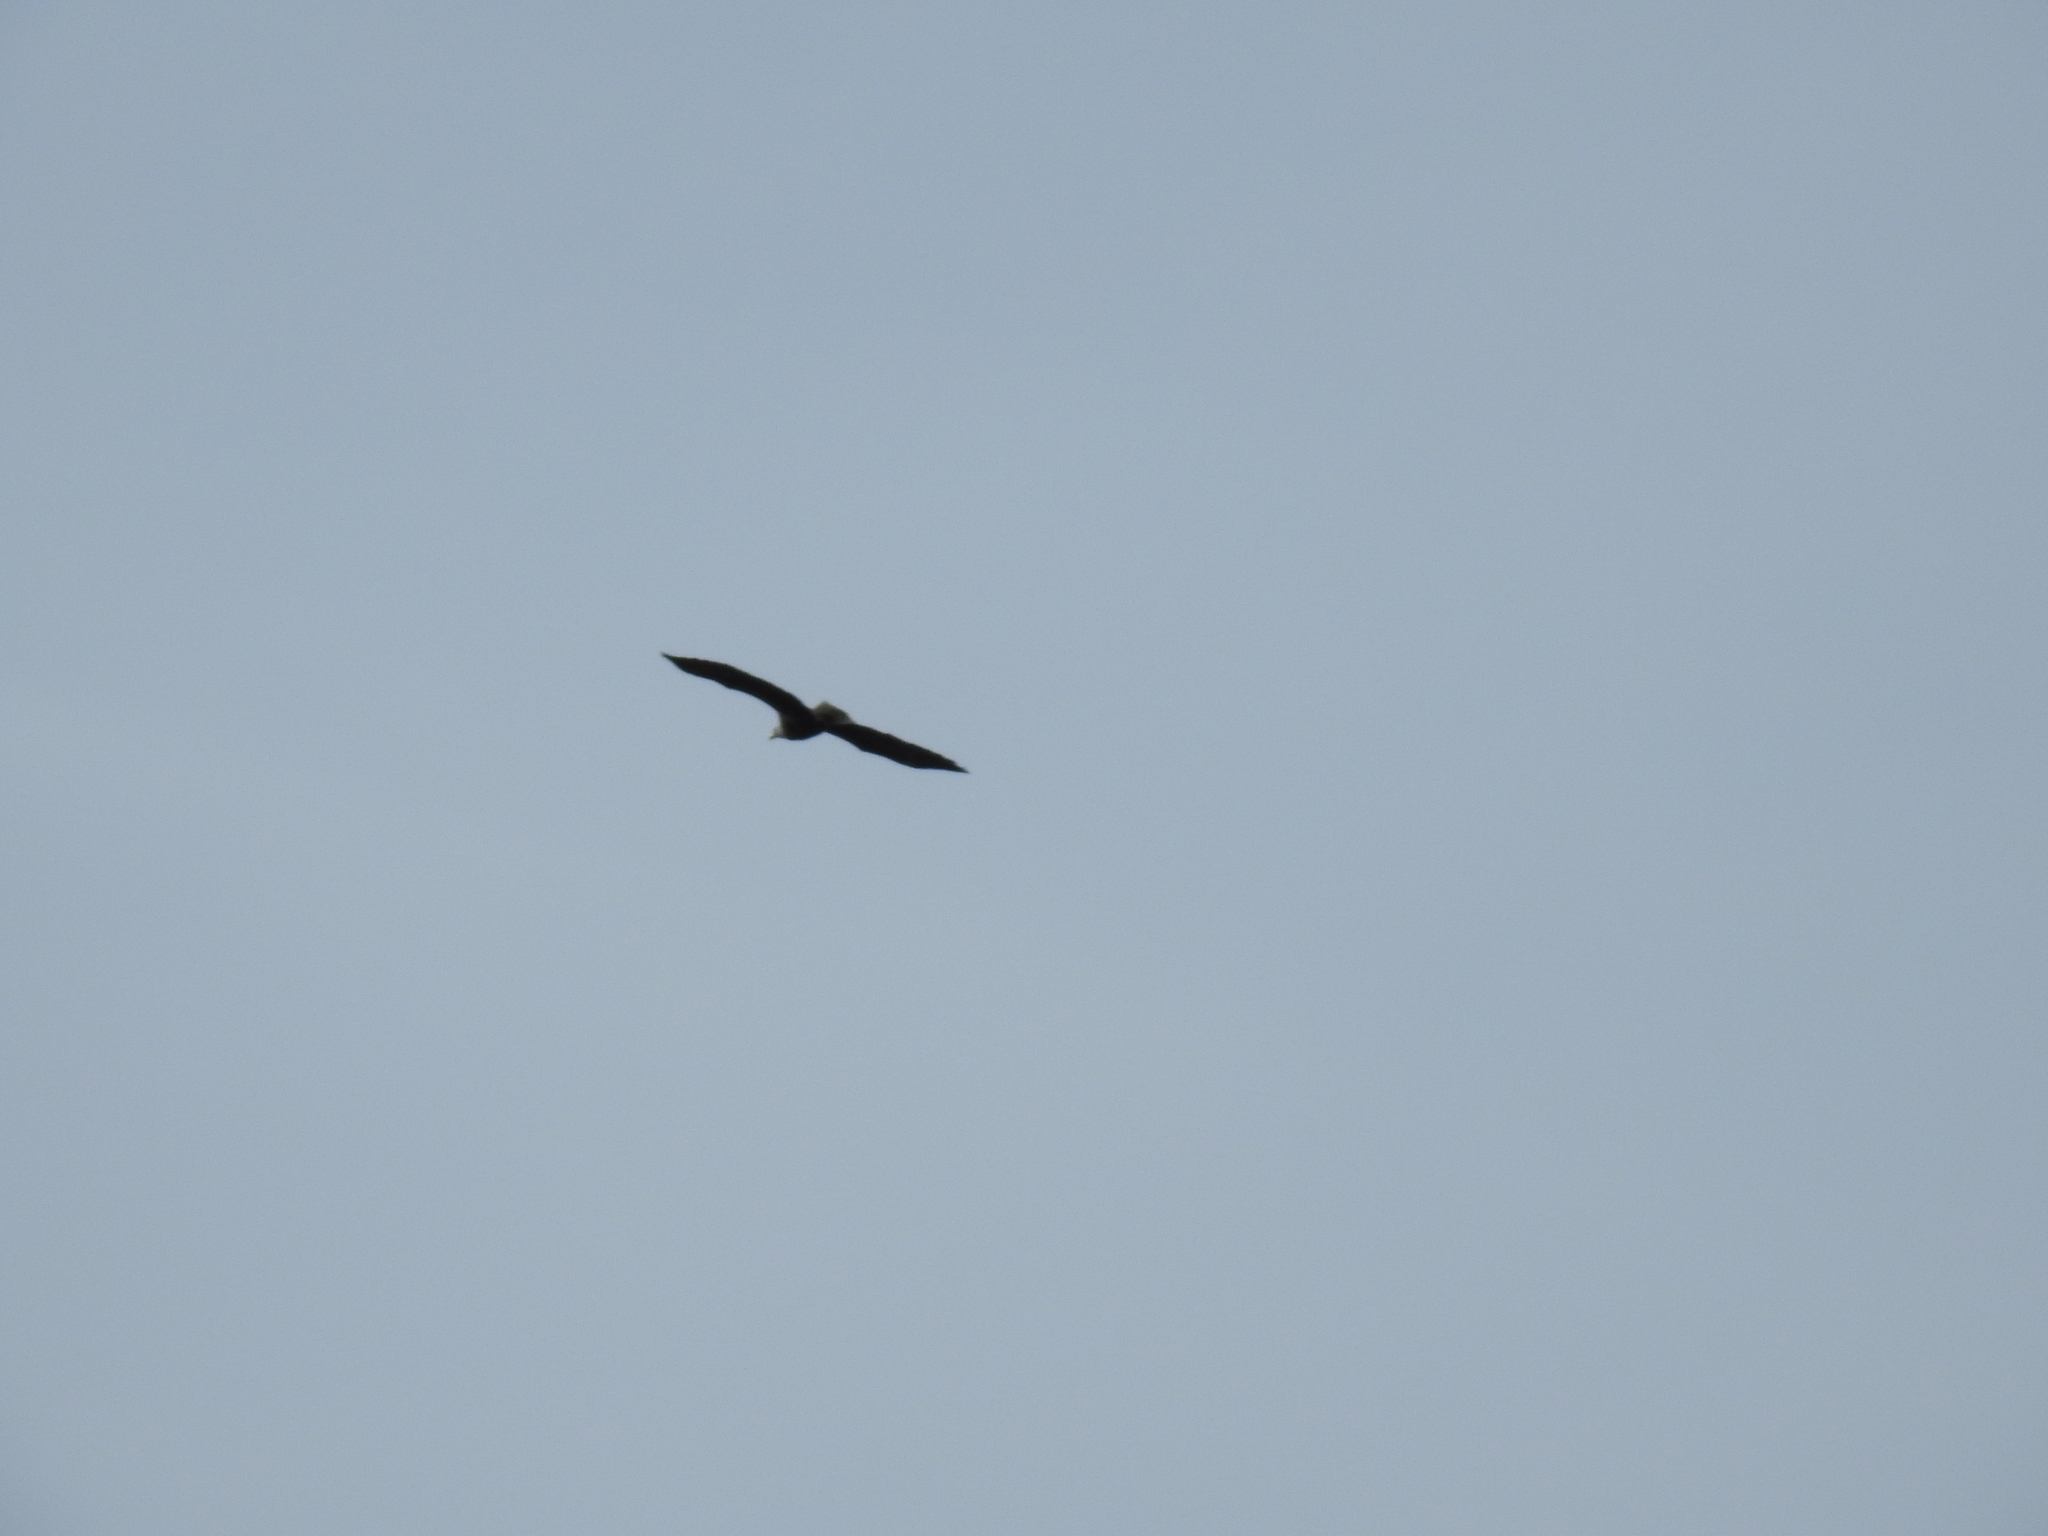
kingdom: Animalia
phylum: Chordata
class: Aves
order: Accipitriformes
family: Accipitridae
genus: Haliaeetus
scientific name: Haliaeetus leucocephalus
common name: Bald eagle
